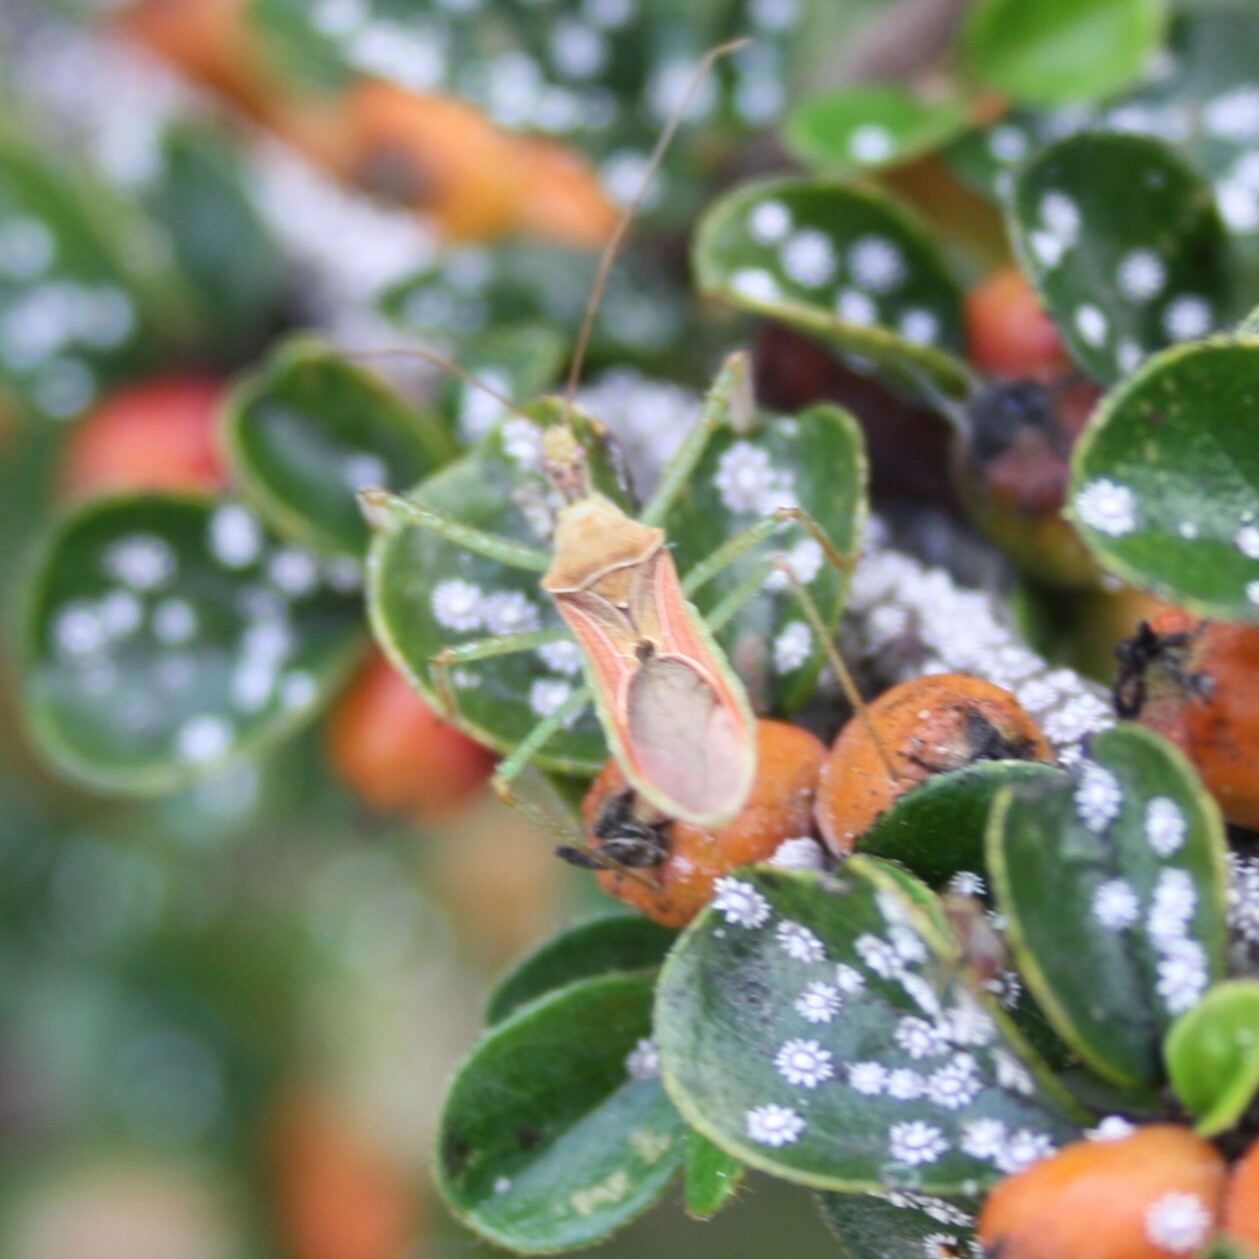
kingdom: Animalia
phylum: Arthropoda
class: Insecta
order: Hemiptera
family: Reduviidae
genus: Zelus
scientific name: Zelus renardii
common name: Assassin bug
